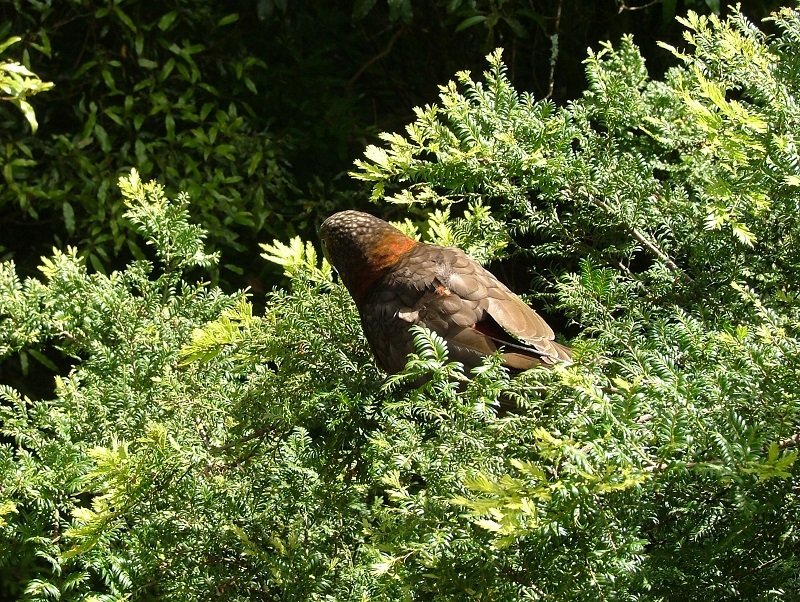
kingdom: Animalia
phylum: Chordata
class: Aves
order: Psittaciformes
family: Psittacidae
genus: Nestor
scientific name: Nestor meridionalis
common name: New zealand kaka
